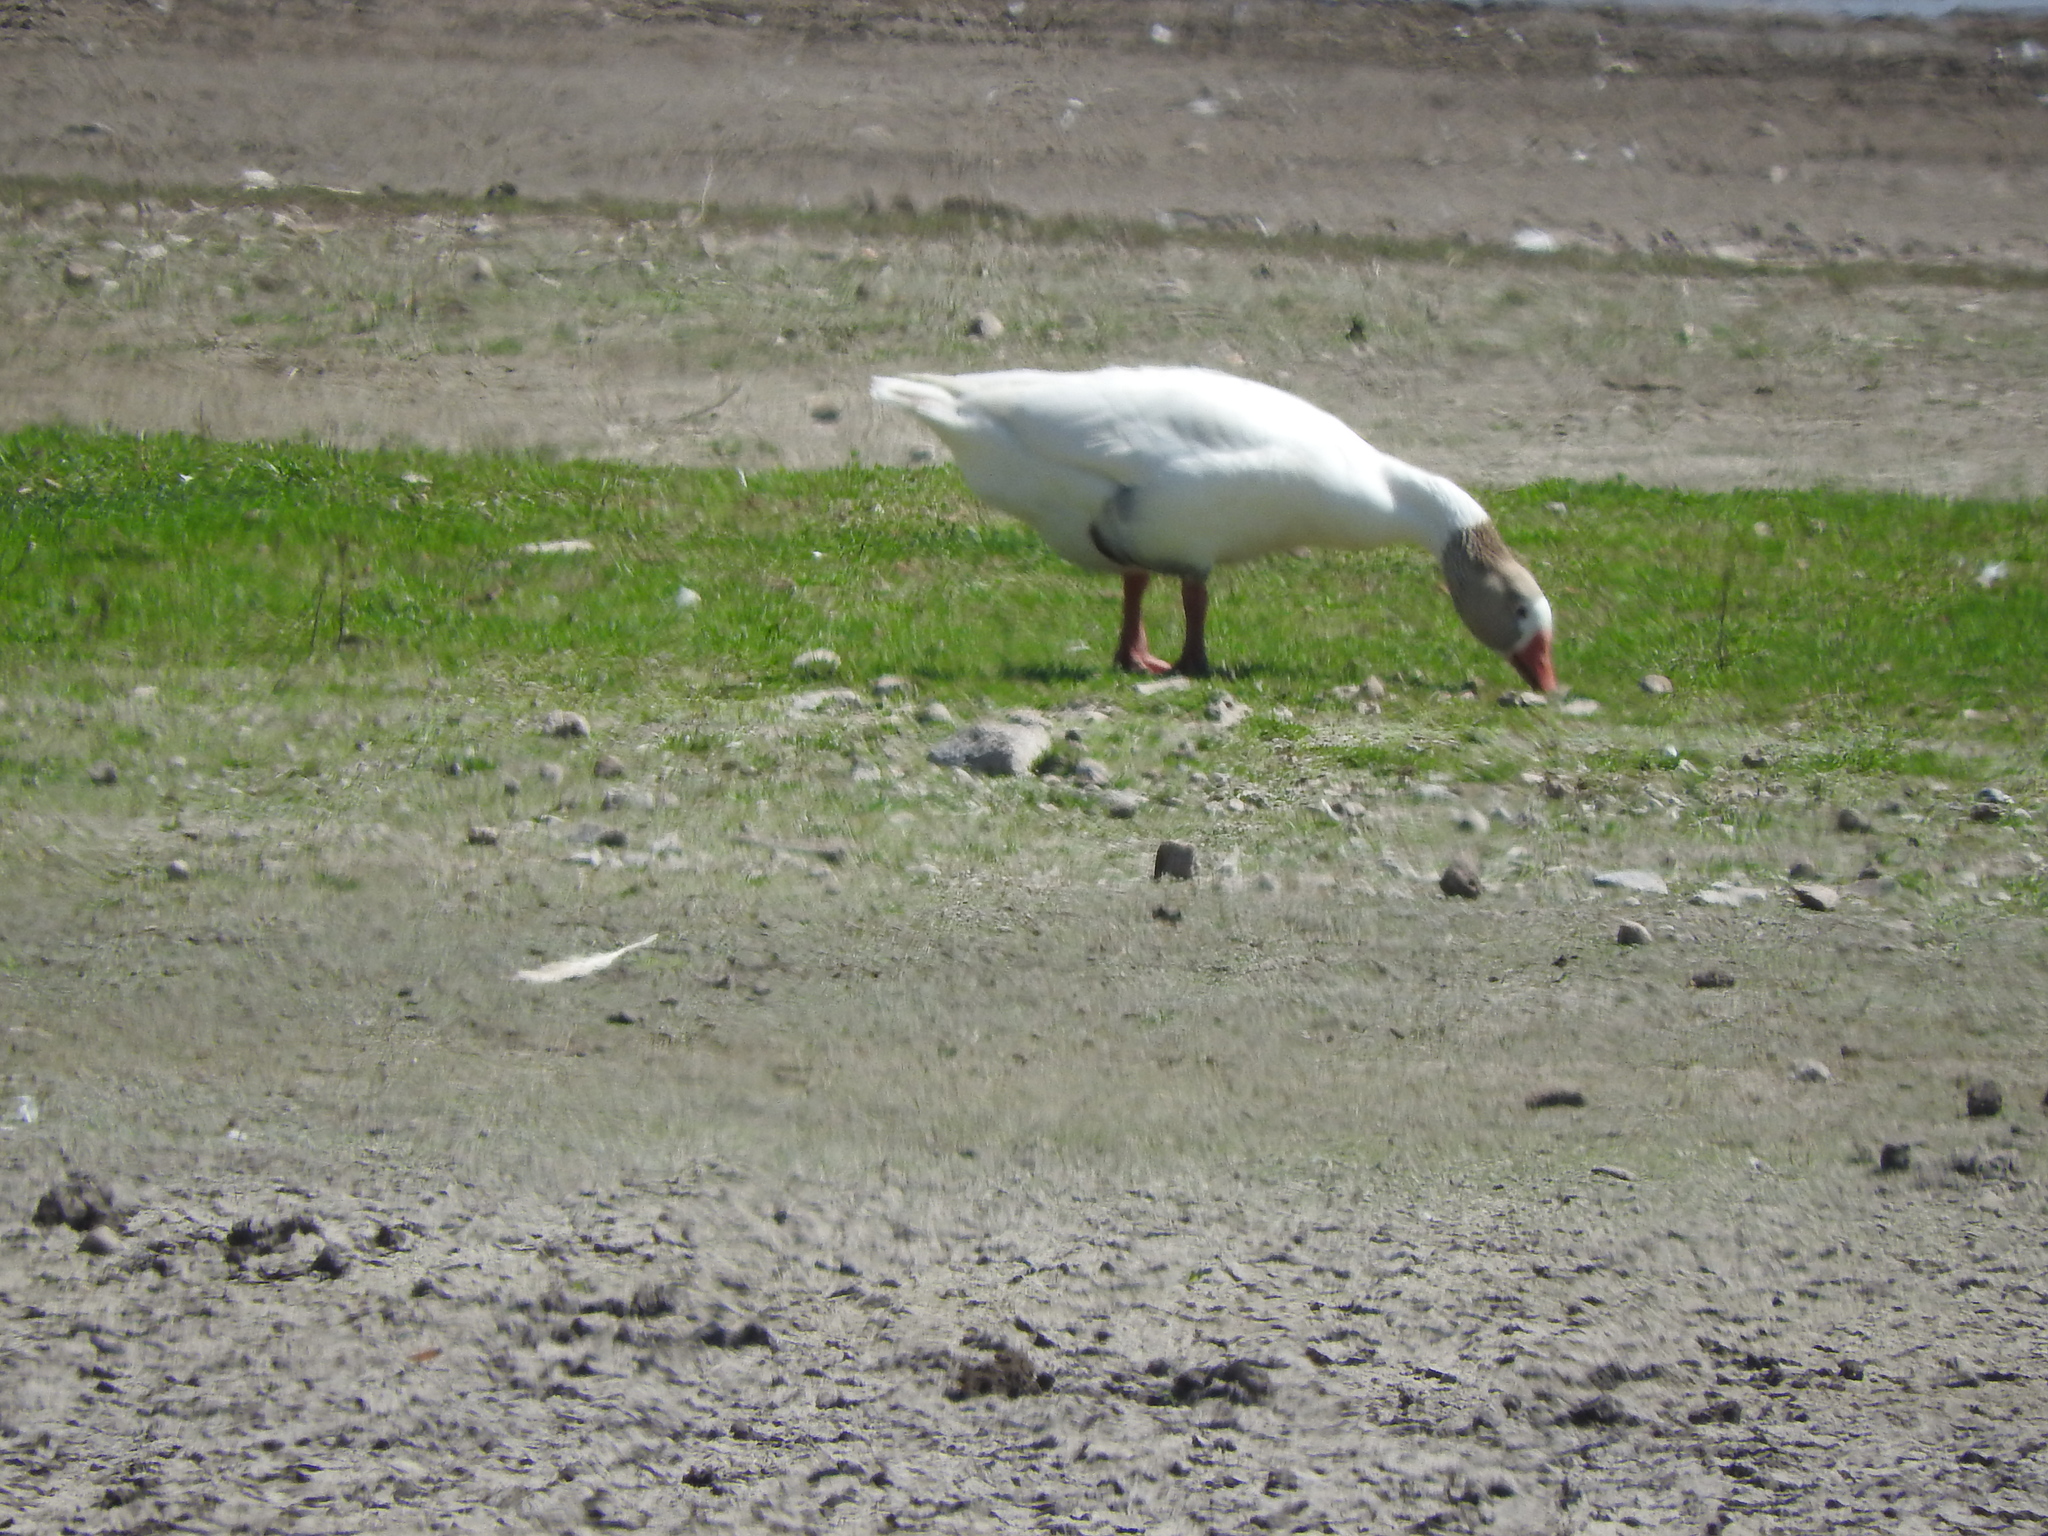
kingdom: Animalia
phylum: Chordata
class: Aves
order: Anseriformes
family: Anatidae
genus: Anser
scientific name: Anser anser
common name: Greylag goose
